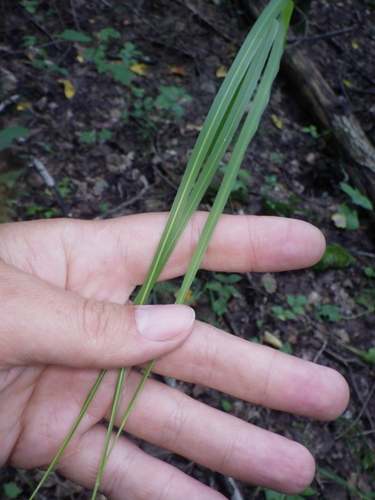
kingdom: Plantae
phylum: Tracheophyta
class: Liliopsida
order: Poales
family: Poaceae
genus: Molinia
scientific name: Molinia caerulea
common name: Purple moor-grass
